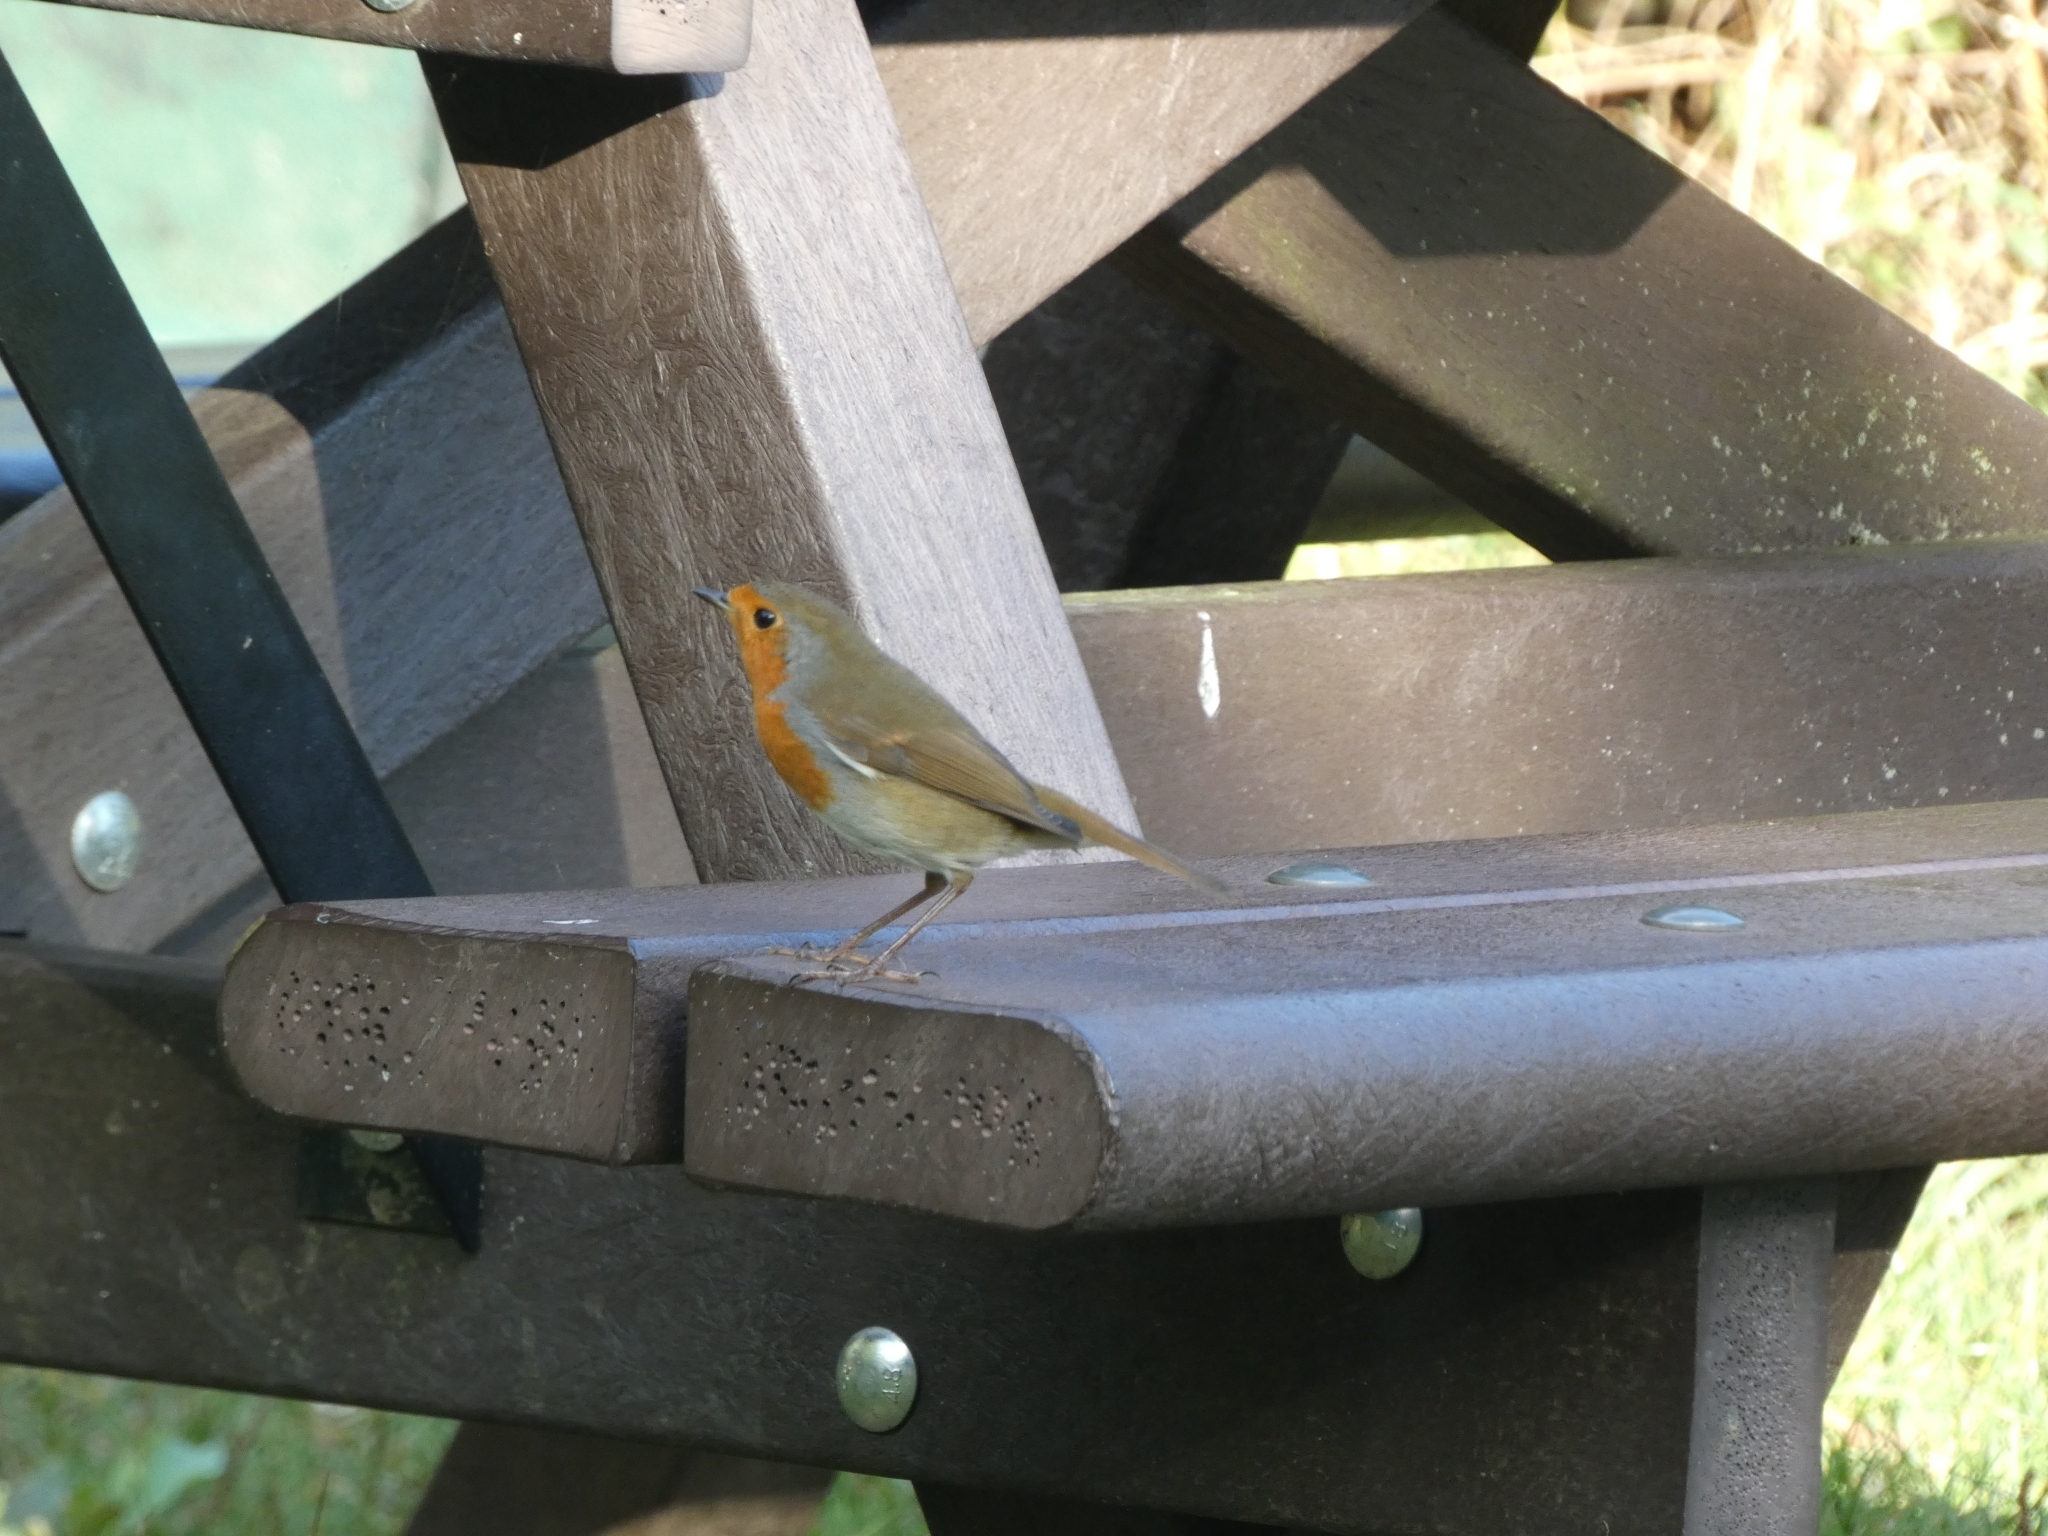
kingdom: Animalia
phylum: Chordata
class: Aves
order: Passeriformes
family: Muscicapidae
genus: Erithacus
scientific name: Erithacus rubecula
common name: European robin
